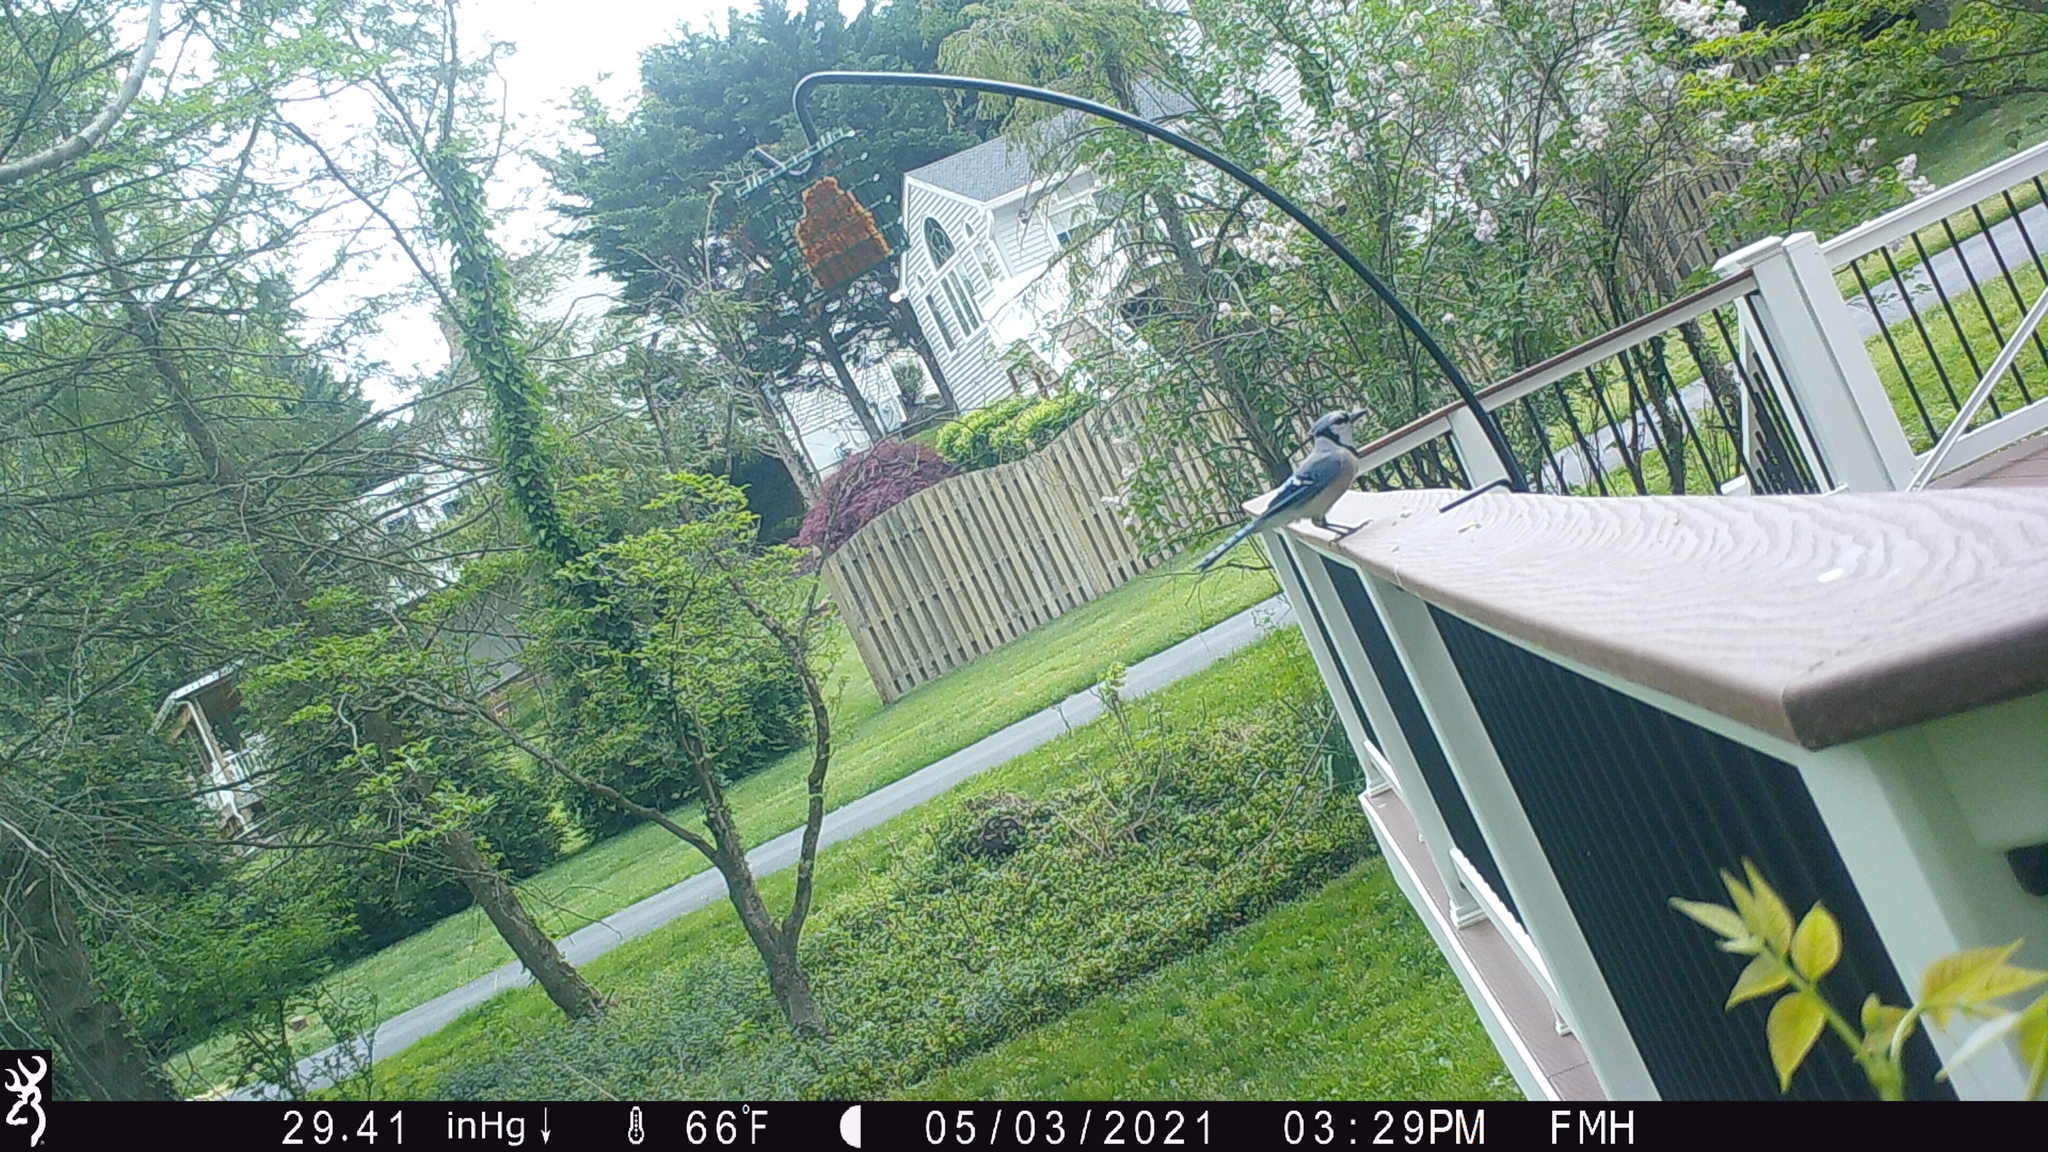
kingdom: Animalia
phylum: Chordata
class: Aves
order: Passeriformes
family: Corvidae
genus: Cyanocitta
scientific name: Cyanocitta cristata
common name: Blue jay
